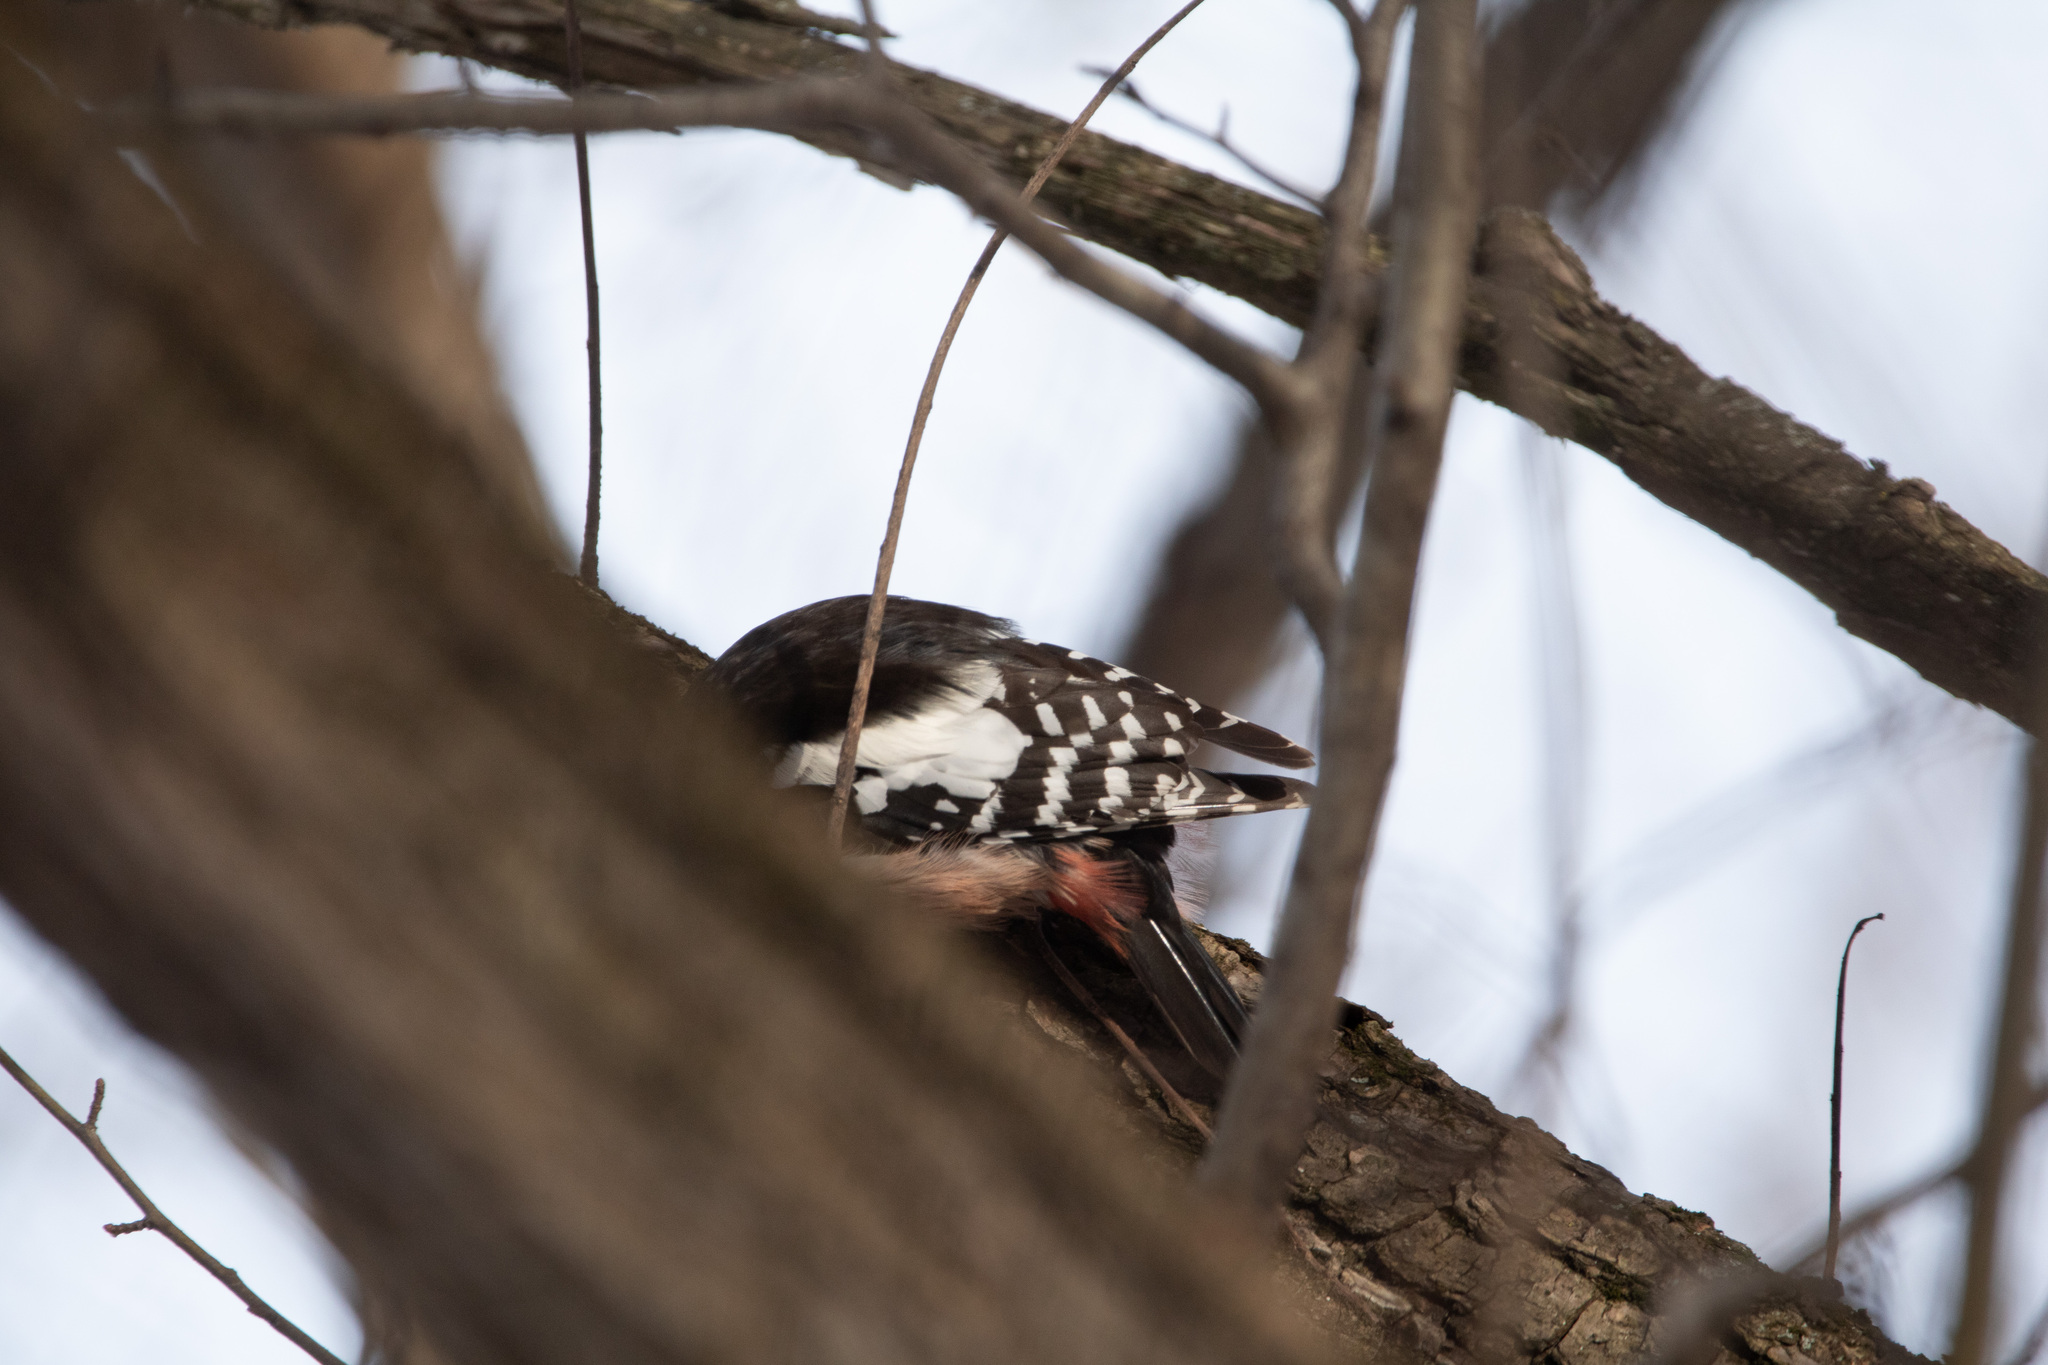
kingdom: Animalia
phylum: Chordata
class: Aves
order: Piciformes
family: Picidae
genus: Dendrocoptes
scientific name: Dendrocoptes medius
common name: Middle spotted woodpecker
